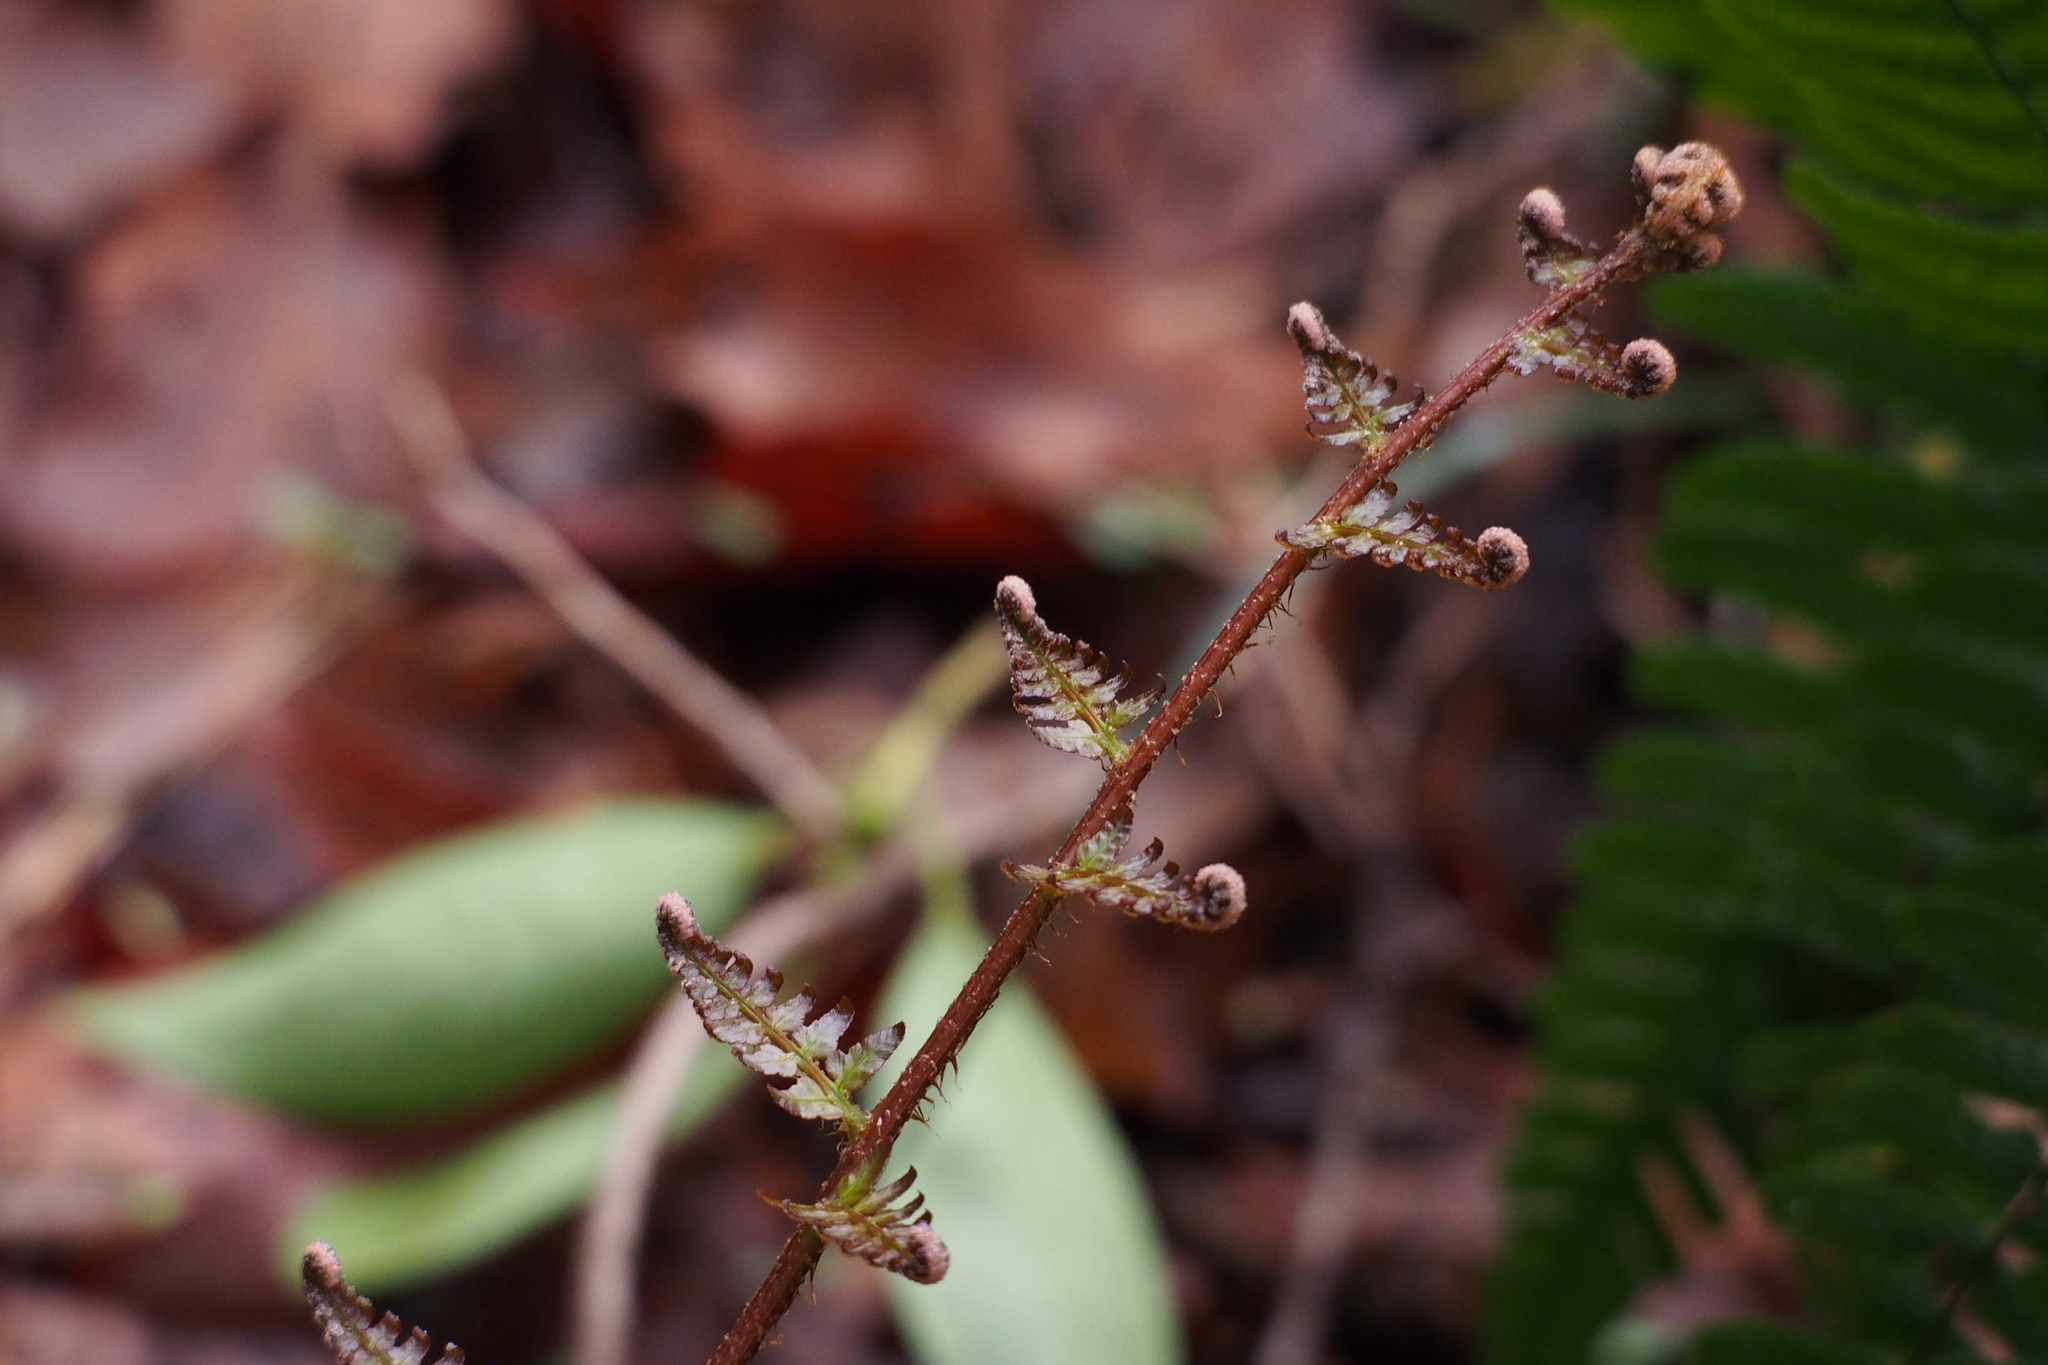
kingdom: Plantae
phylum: Tracheophyta
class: Polypodiopsida
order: Polypodiales
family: Dryopteridaceae
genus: Dryopteris
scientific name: Dryopteris erythrosora
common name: Autumn fern
